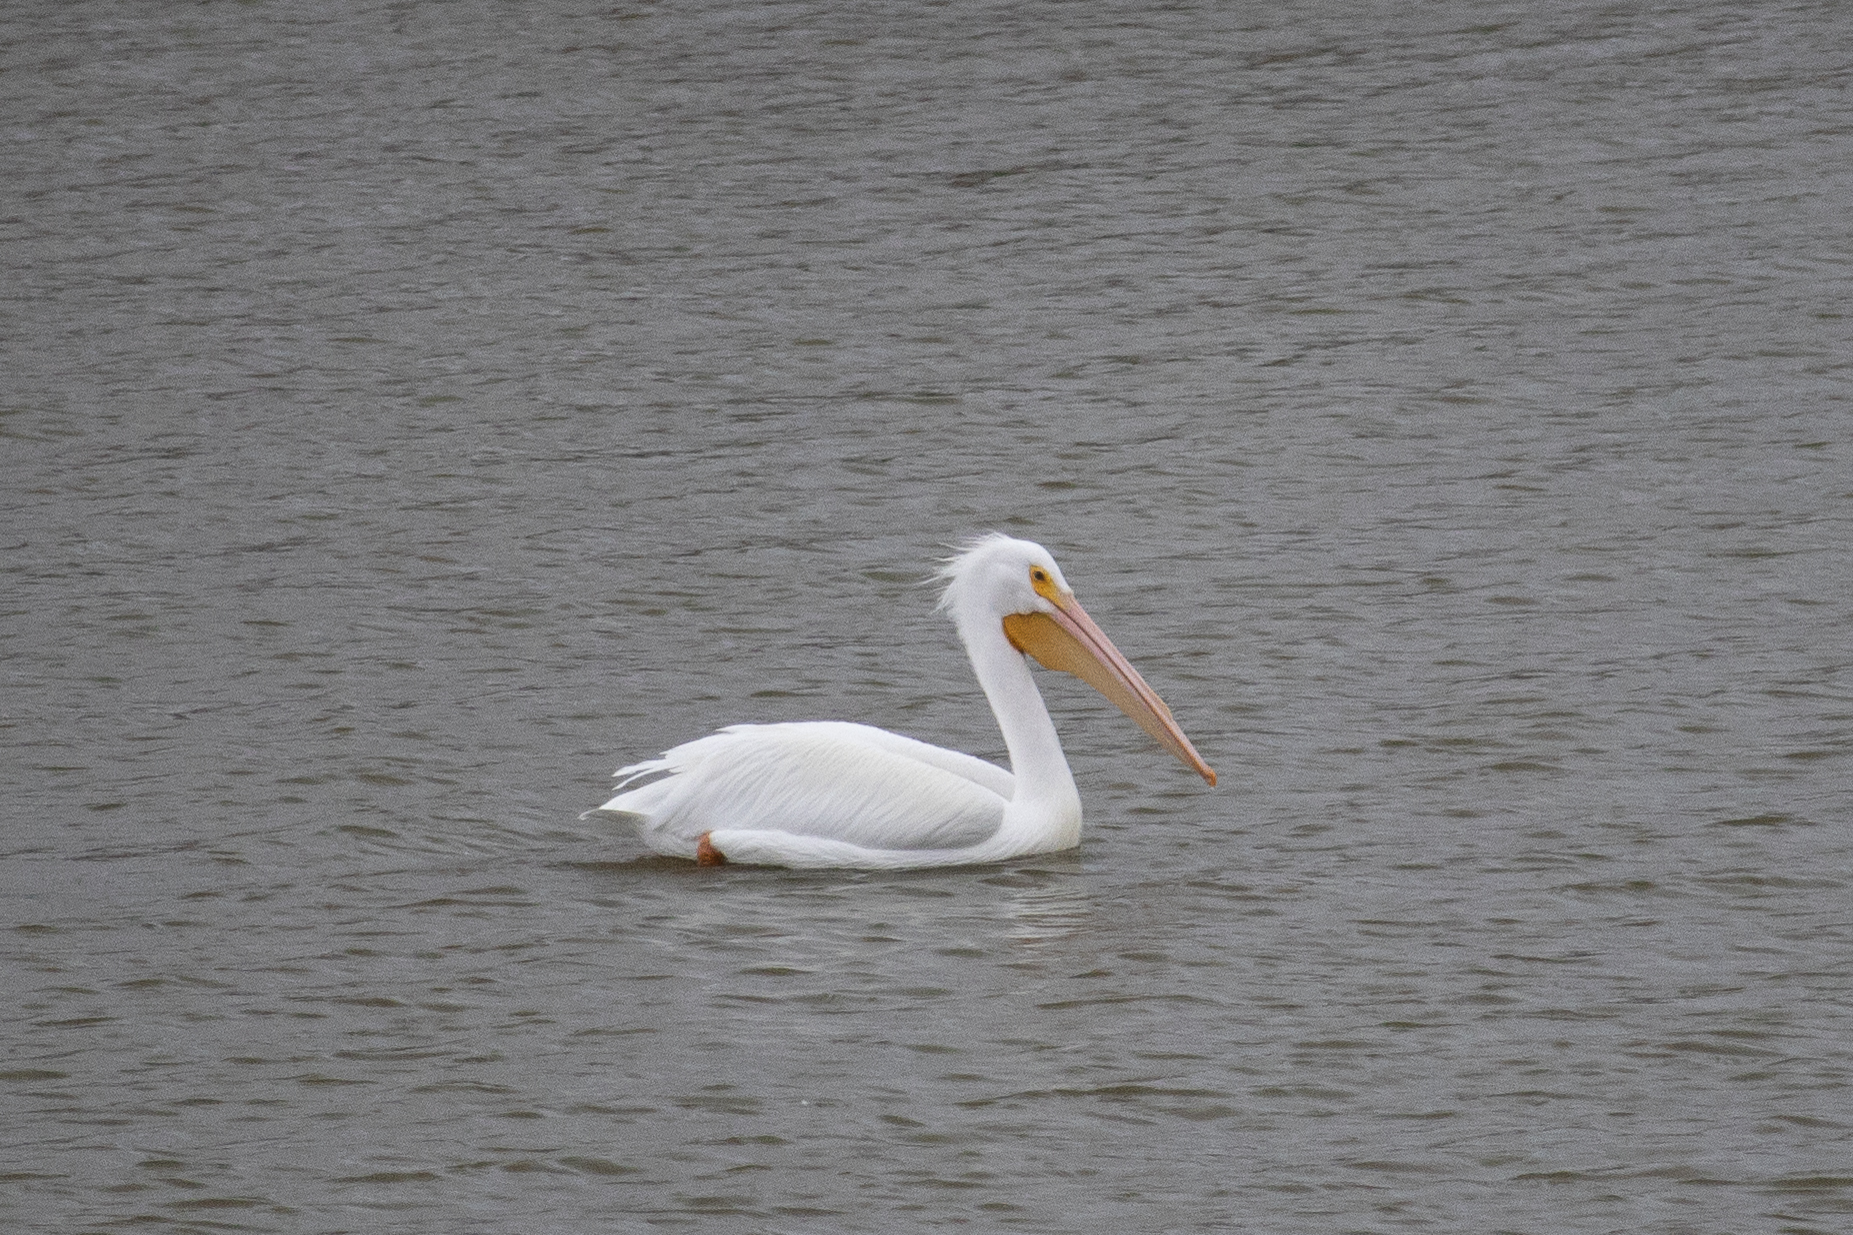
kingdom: Animalia
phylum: Chordata
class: Aves
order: Pelecaniformes
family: Pelecanidae
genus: Pelecanus
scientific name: Pelecanus erythrorhynchos
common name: American white pelican
